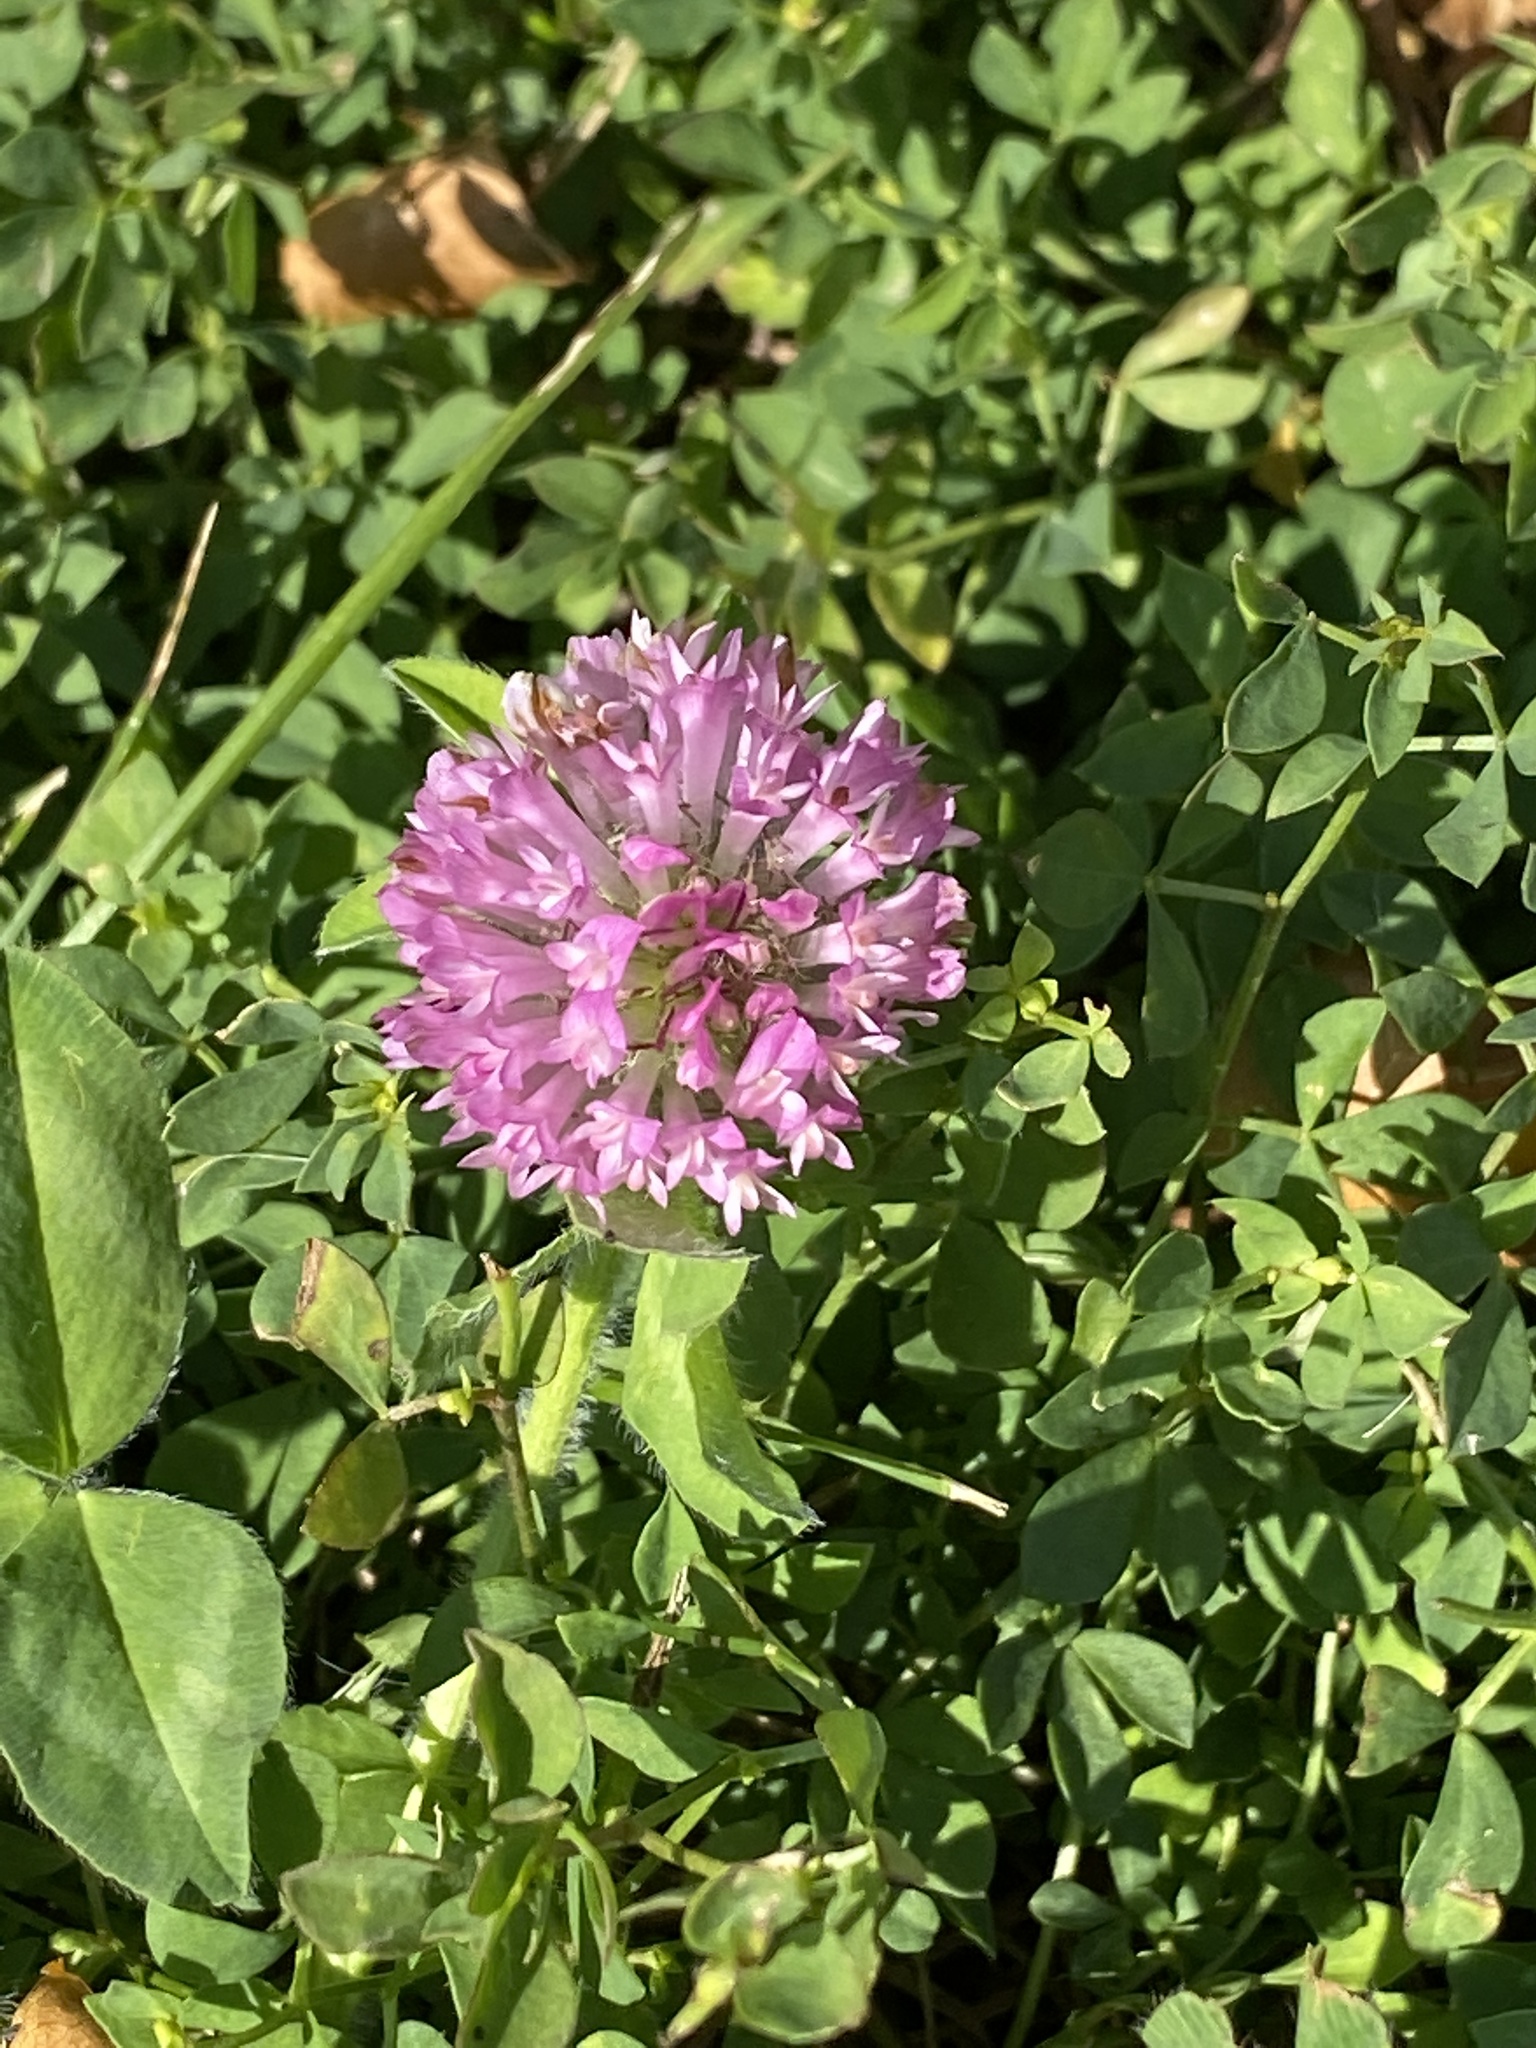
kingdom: Plantae
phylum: Tracheophyta
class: Magnoliopsida
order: Fabales
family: Fabaceae
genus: Trifolium
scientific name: Trifolium pratense
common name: Red clover
